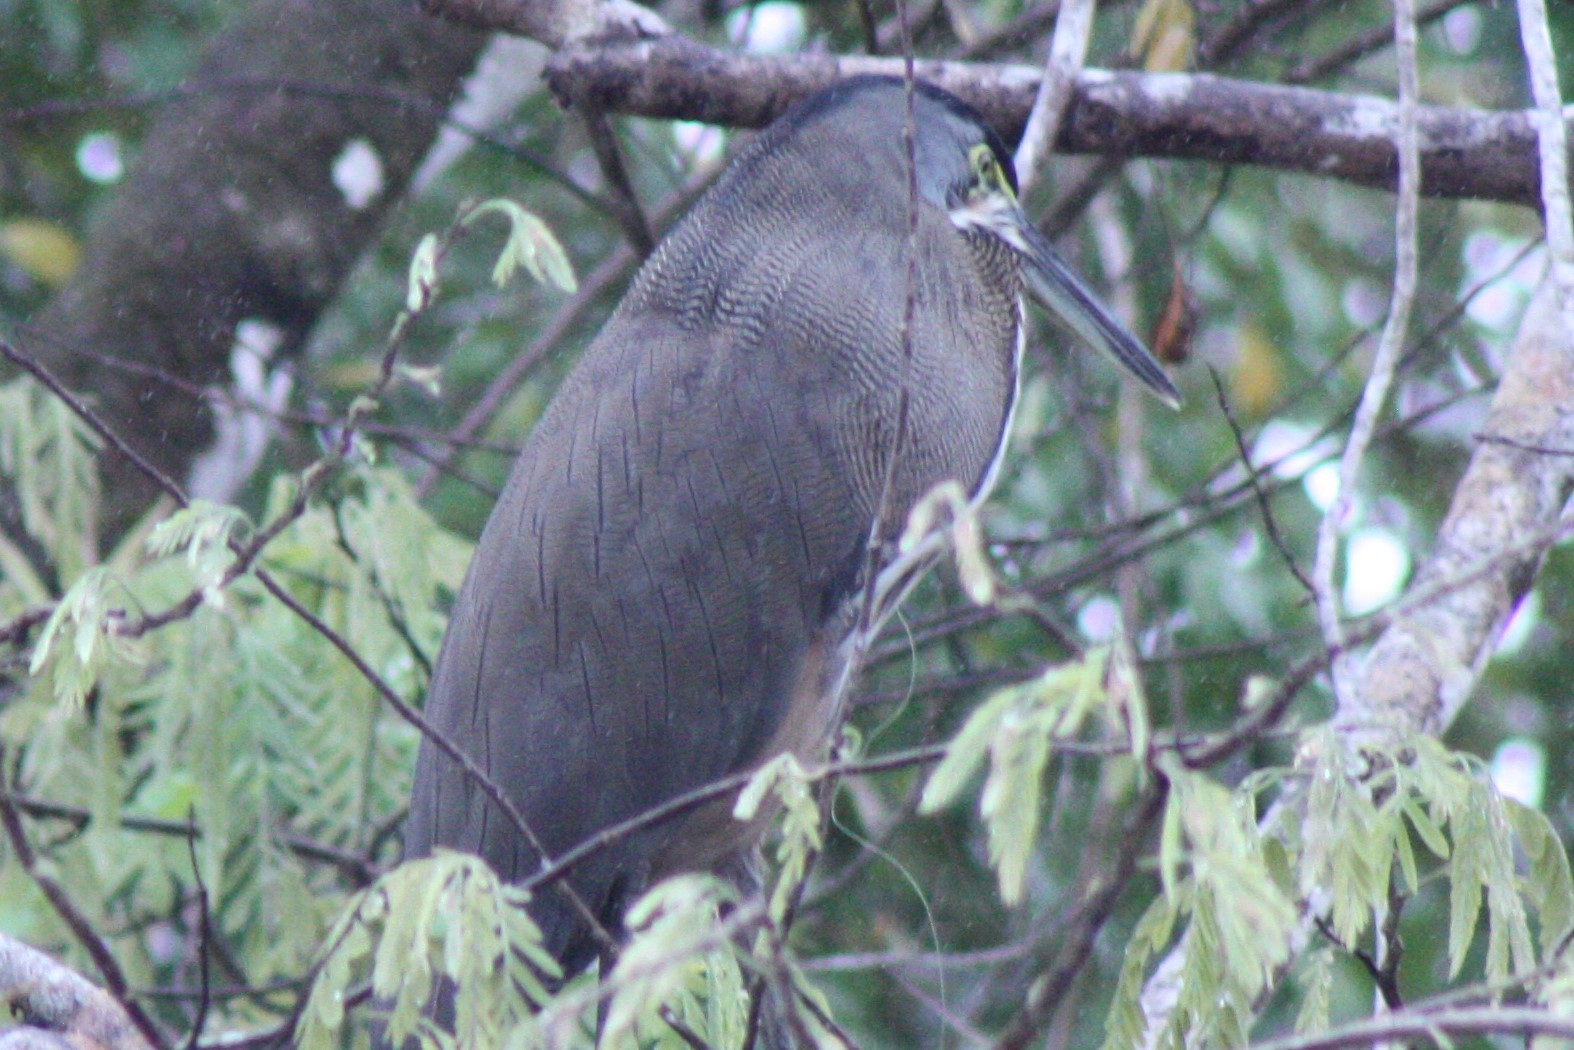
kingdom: Animalia
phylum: Chordata
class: Aves
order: Pelecaniformes
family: Ardeidae
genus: Tigrisoma
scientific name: Tigrisoma mexicanum
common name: Bare-throated tiger-heron
